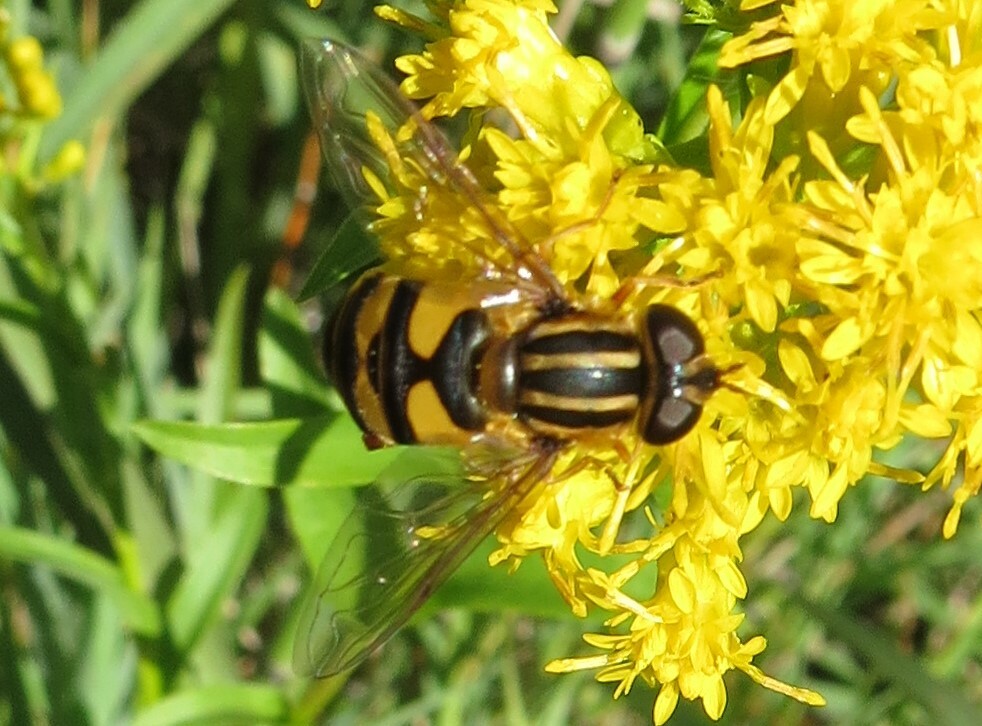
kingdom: Animalia
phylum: Arthropoda
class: Insecta
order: Diptera
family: Syrphidae
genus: Helophilus
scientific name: Helophilus fasciatus
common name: Narrow-headed marsh fly
